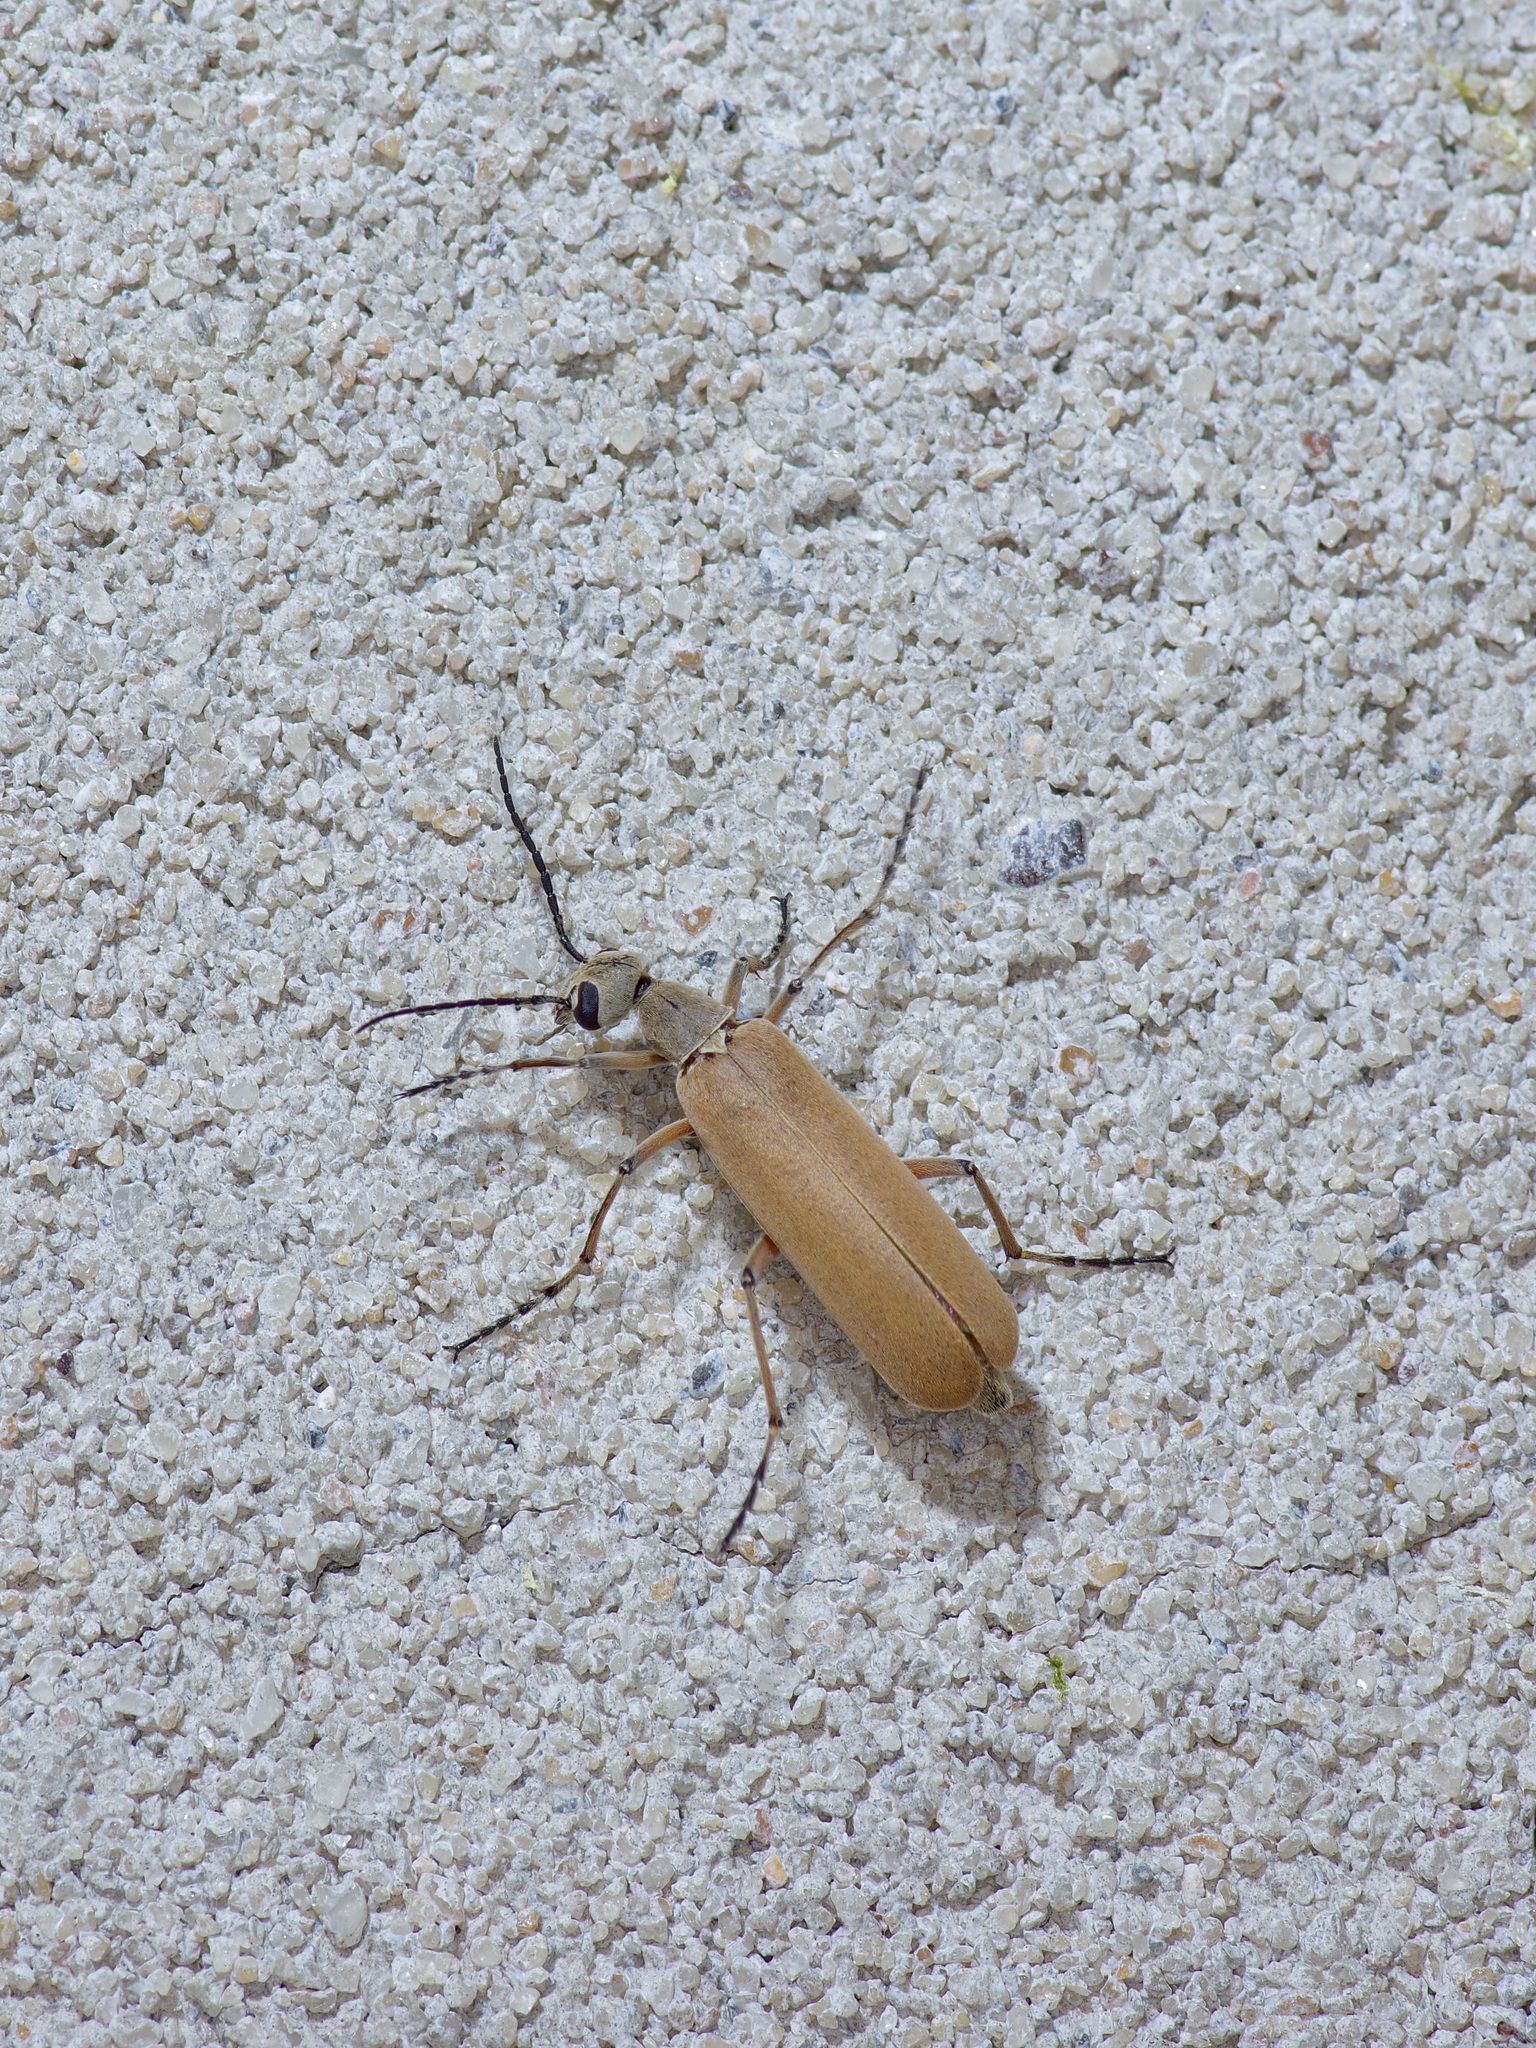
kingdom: Animalia
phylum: Arthropoda
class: Insecta
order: Coleoptera
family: Meloidae
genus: Epicauta
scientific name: Epicauta polingi
